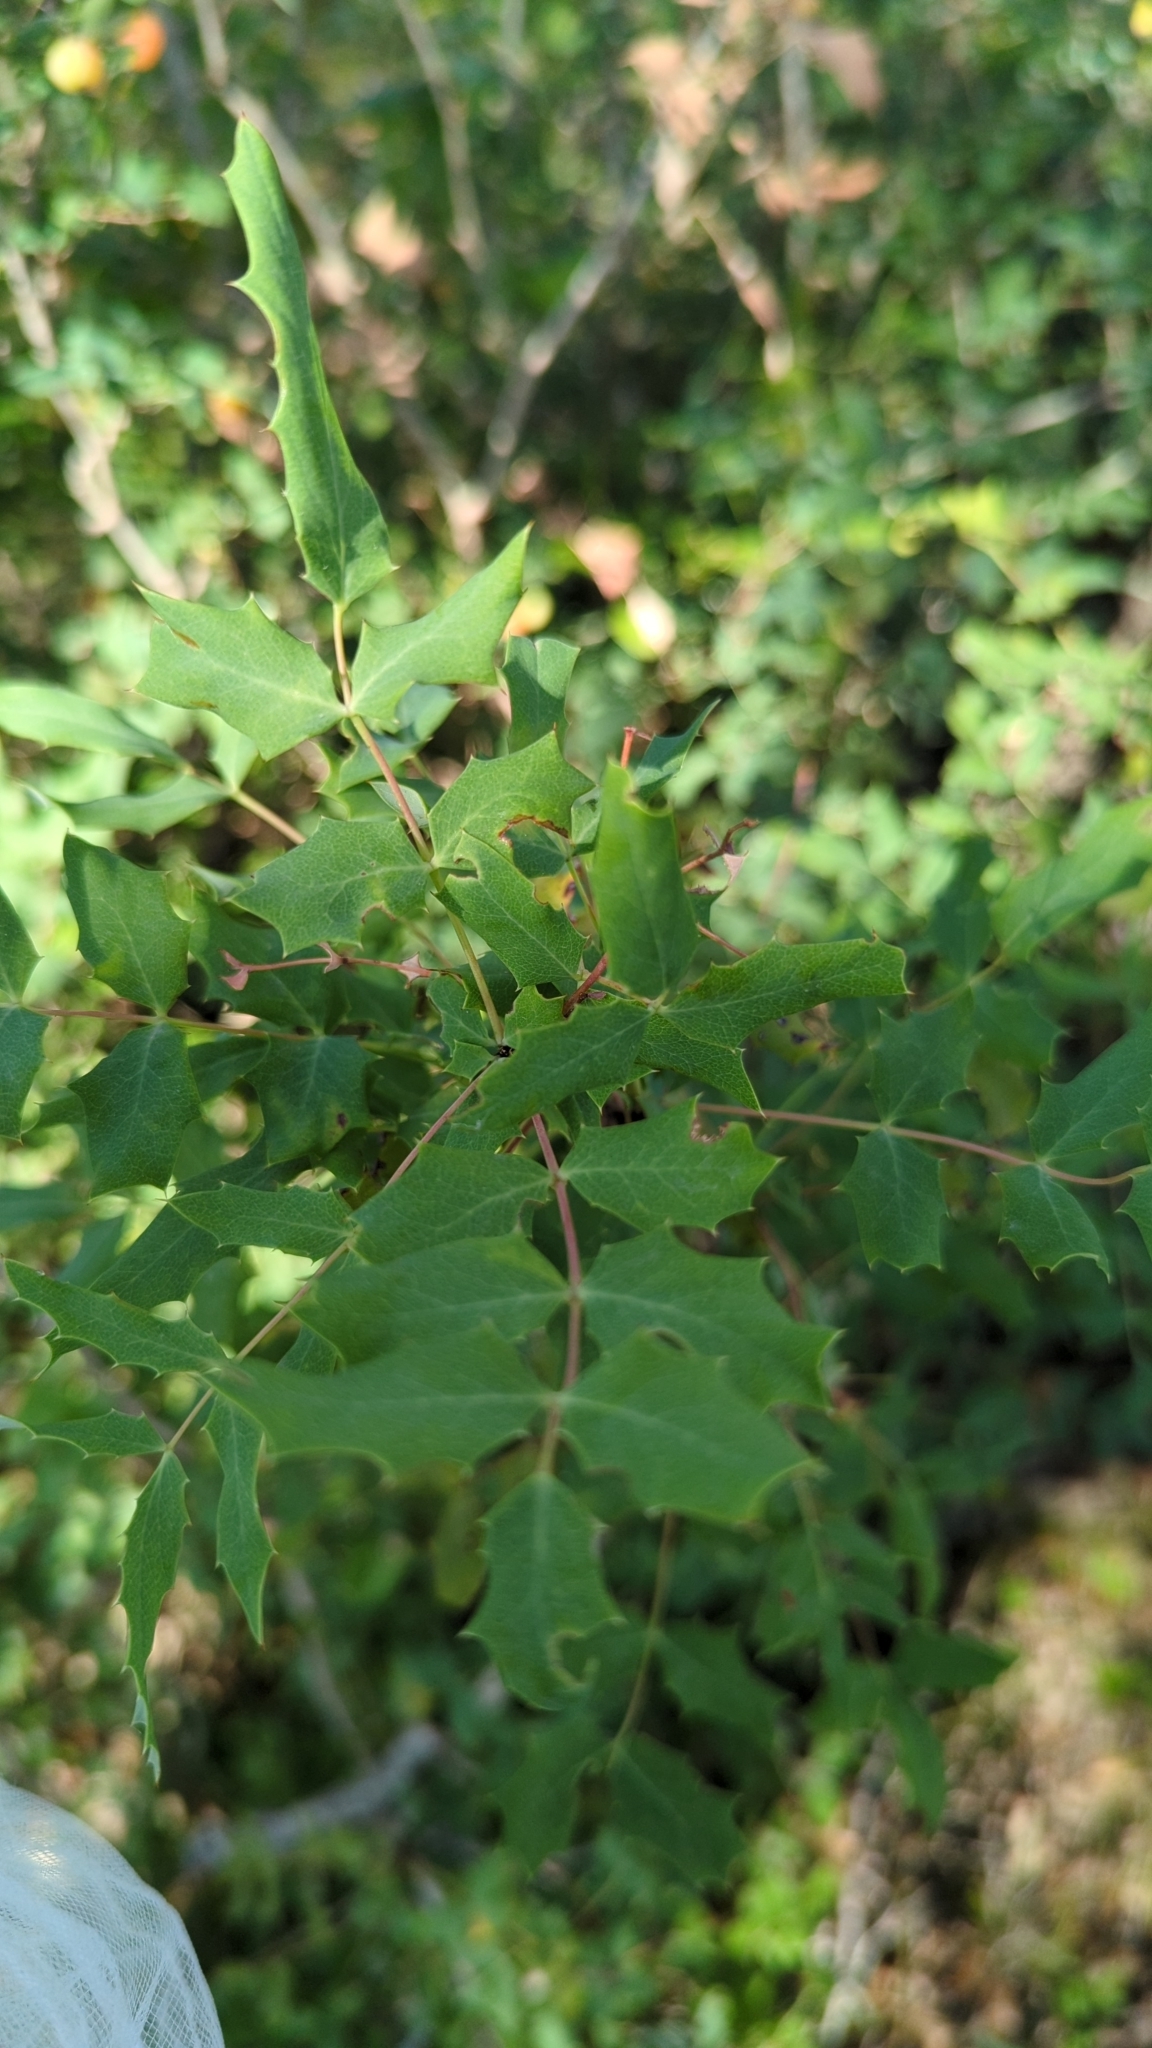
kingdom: Plantae
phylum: Tracheophyta
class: Magnoliopsida
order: Ranunculales
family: Berberidaceae
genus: Berberis
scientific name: Berberis swaseyi
